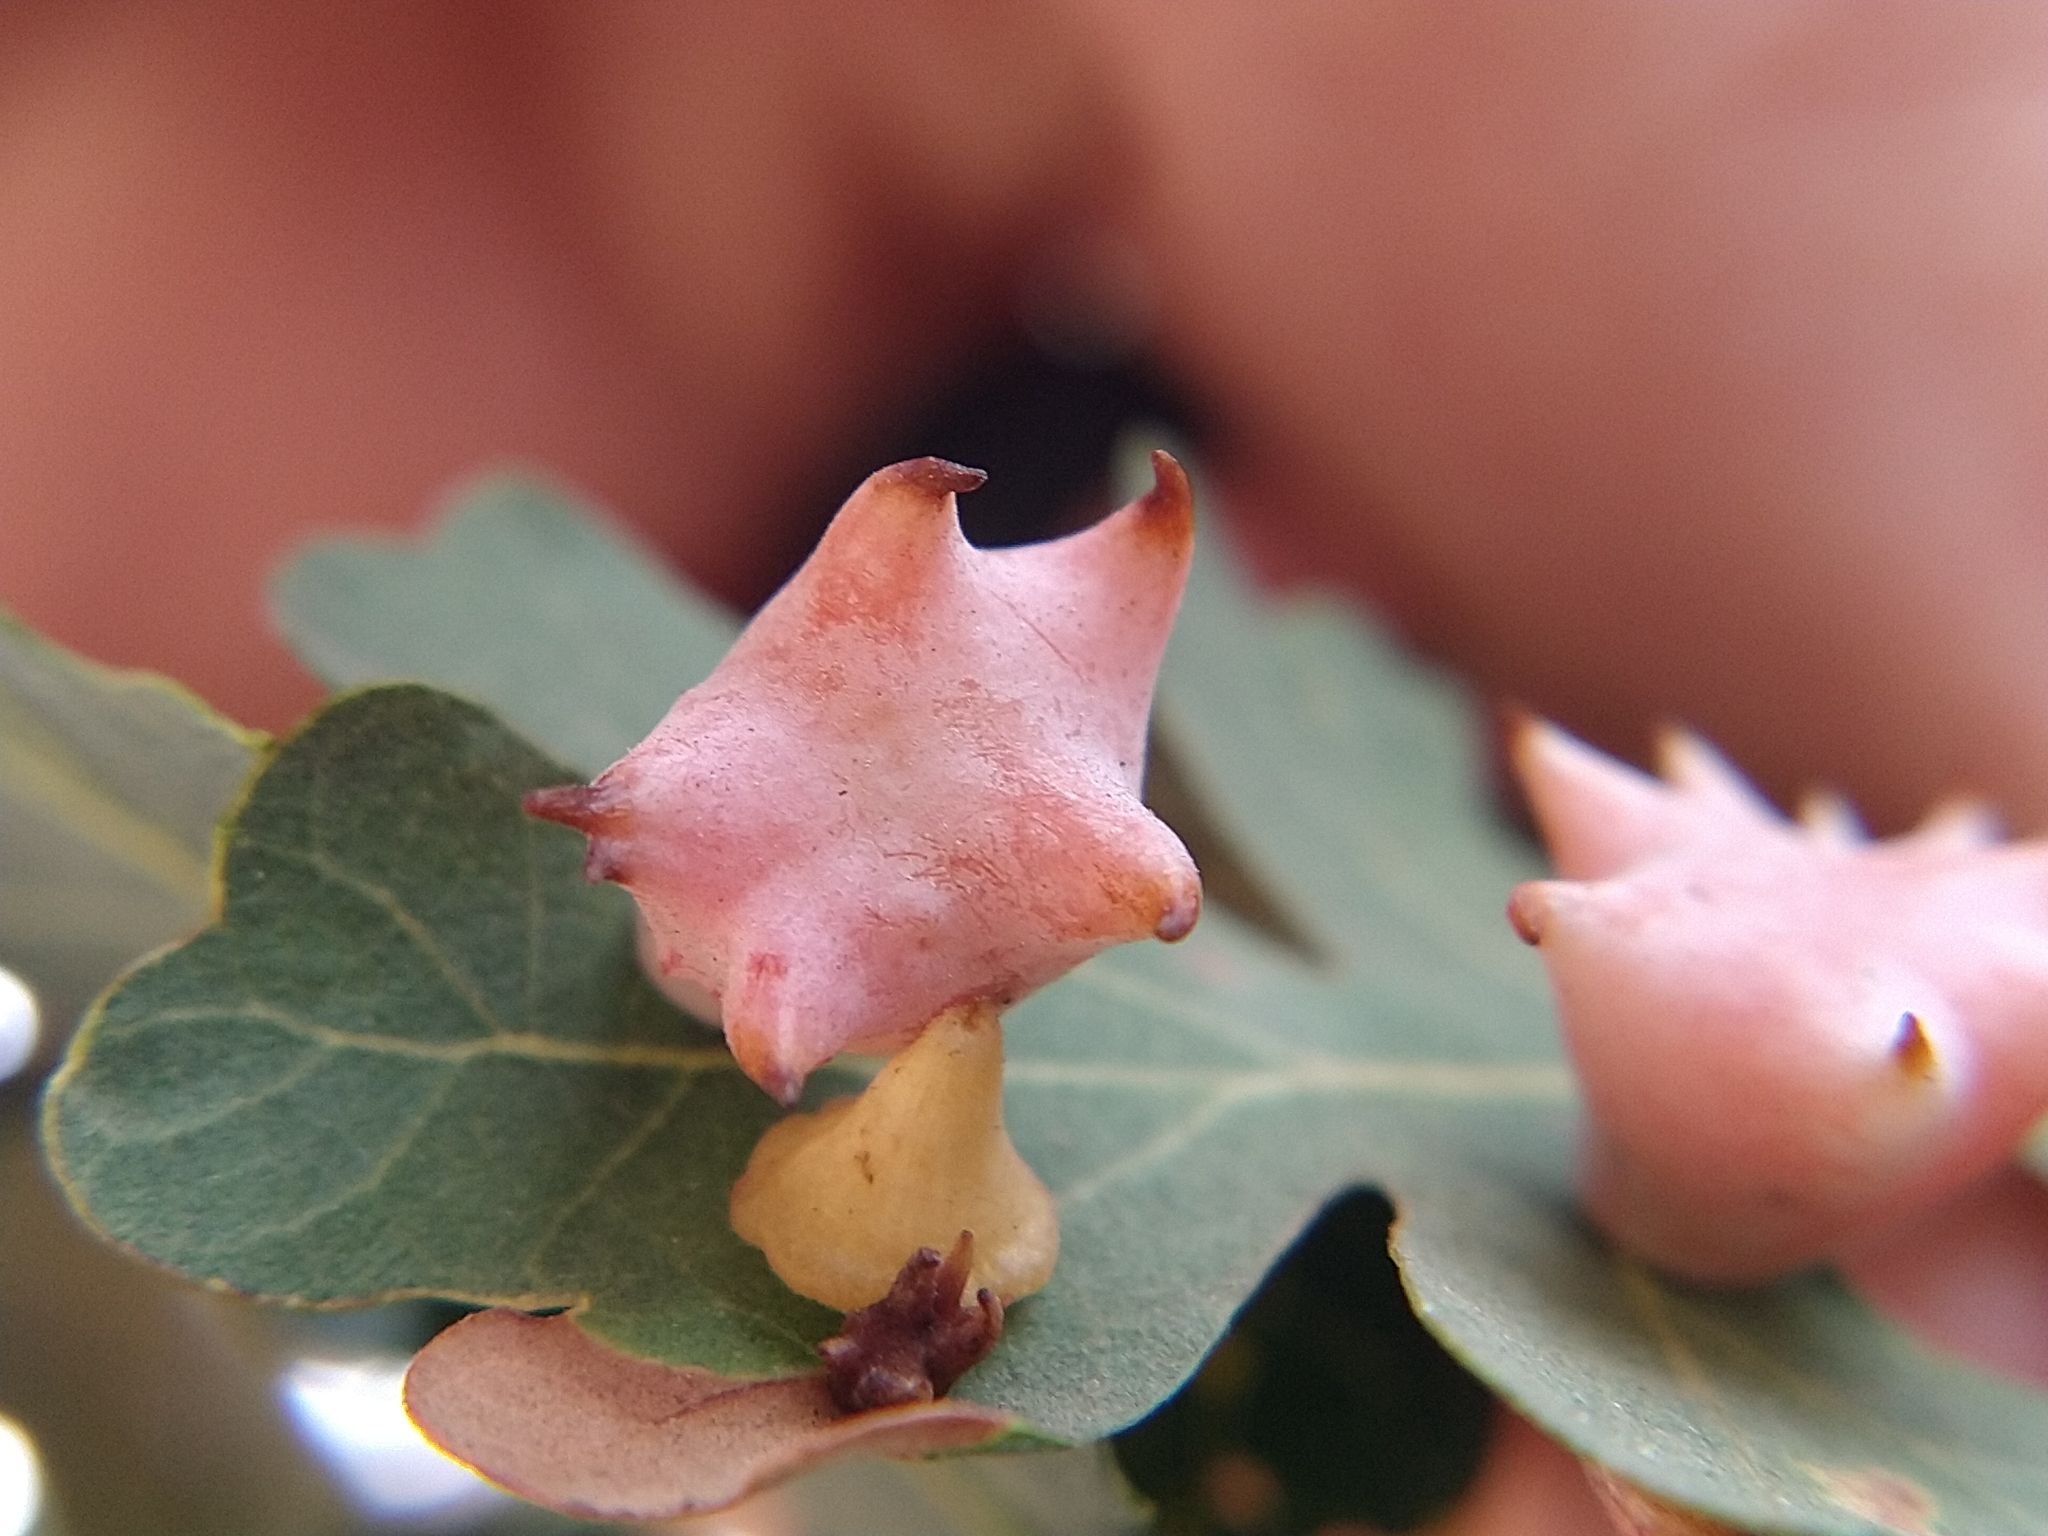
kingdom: Animalia
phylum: Arthropoda
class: Insecta
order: Hymenoptera
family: Cynipidae
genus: Cynips
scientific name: Cynips douglasi
